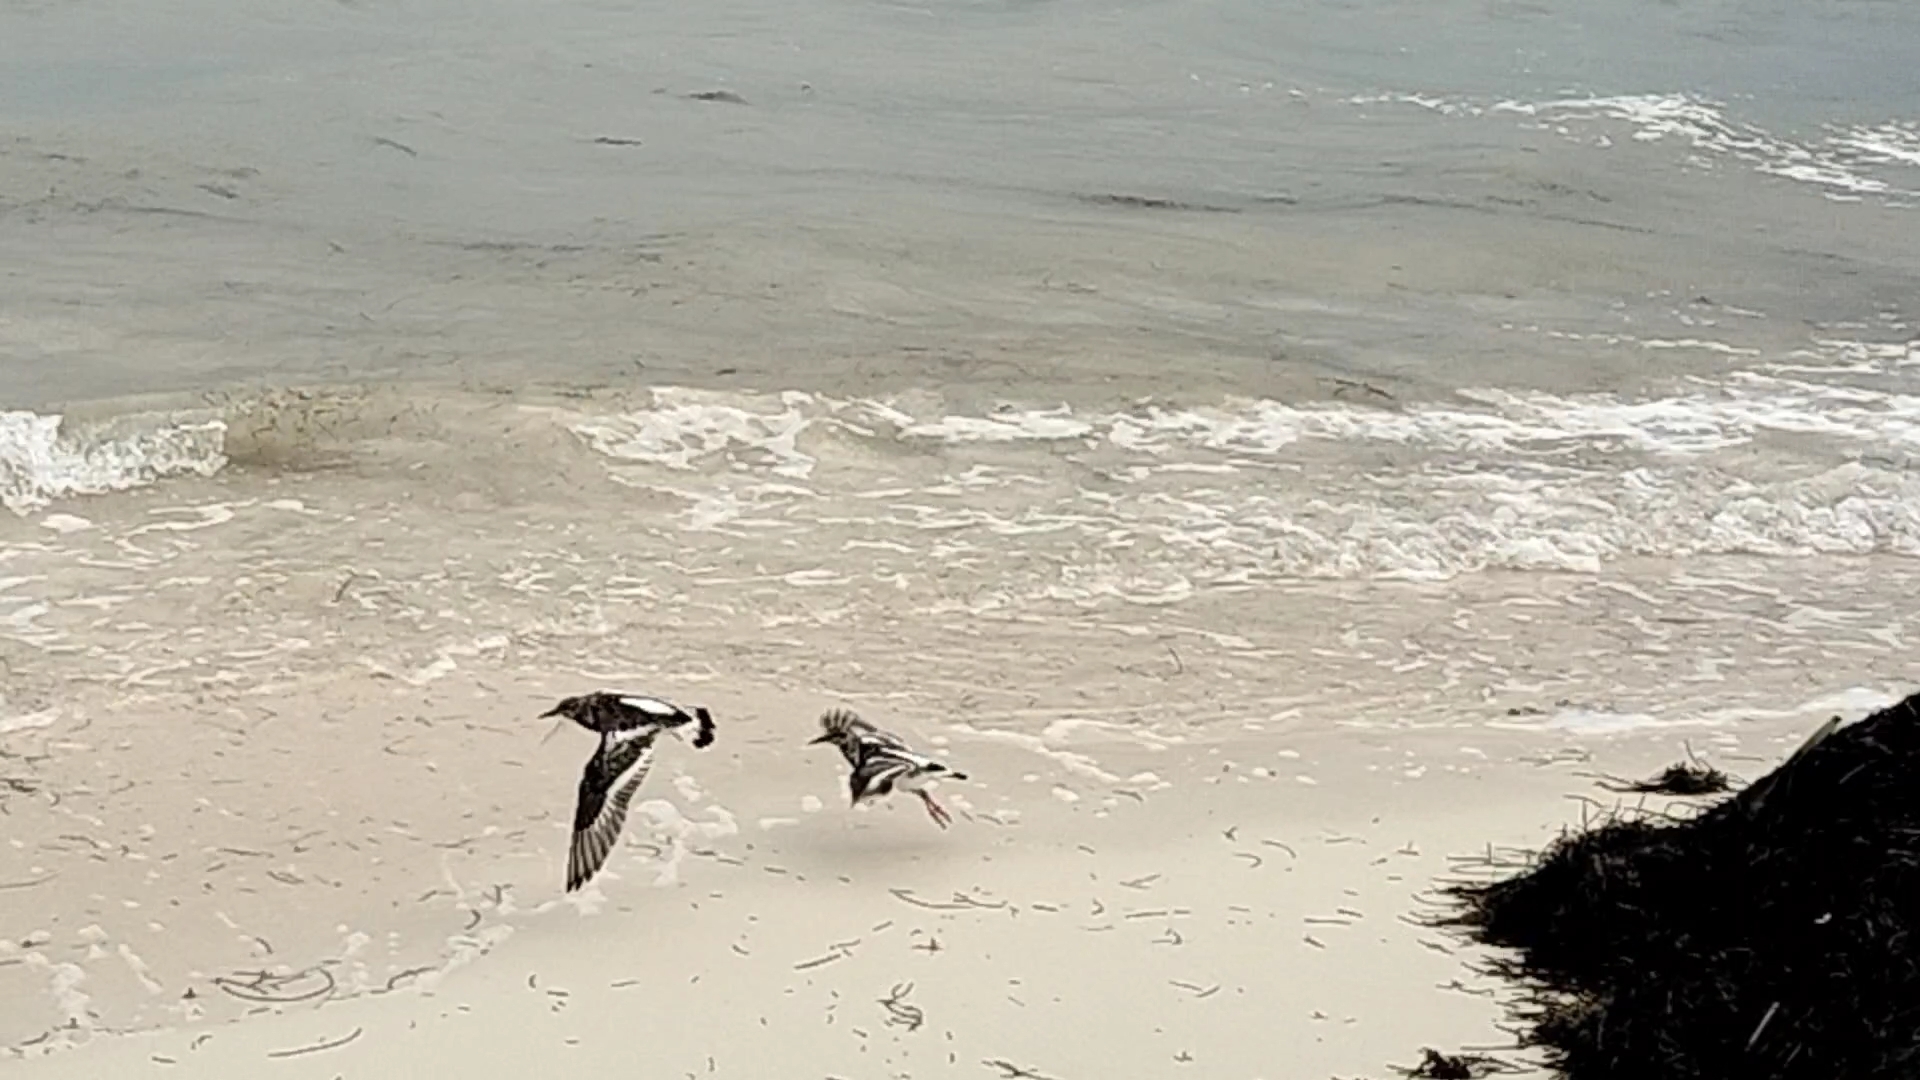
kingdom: Animalia
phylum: Chordata
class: Aves
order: Charadriiformes
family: Scolopacidae
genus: Arenaria
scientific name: Arenaria interpres
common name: Ruddy turnstone
